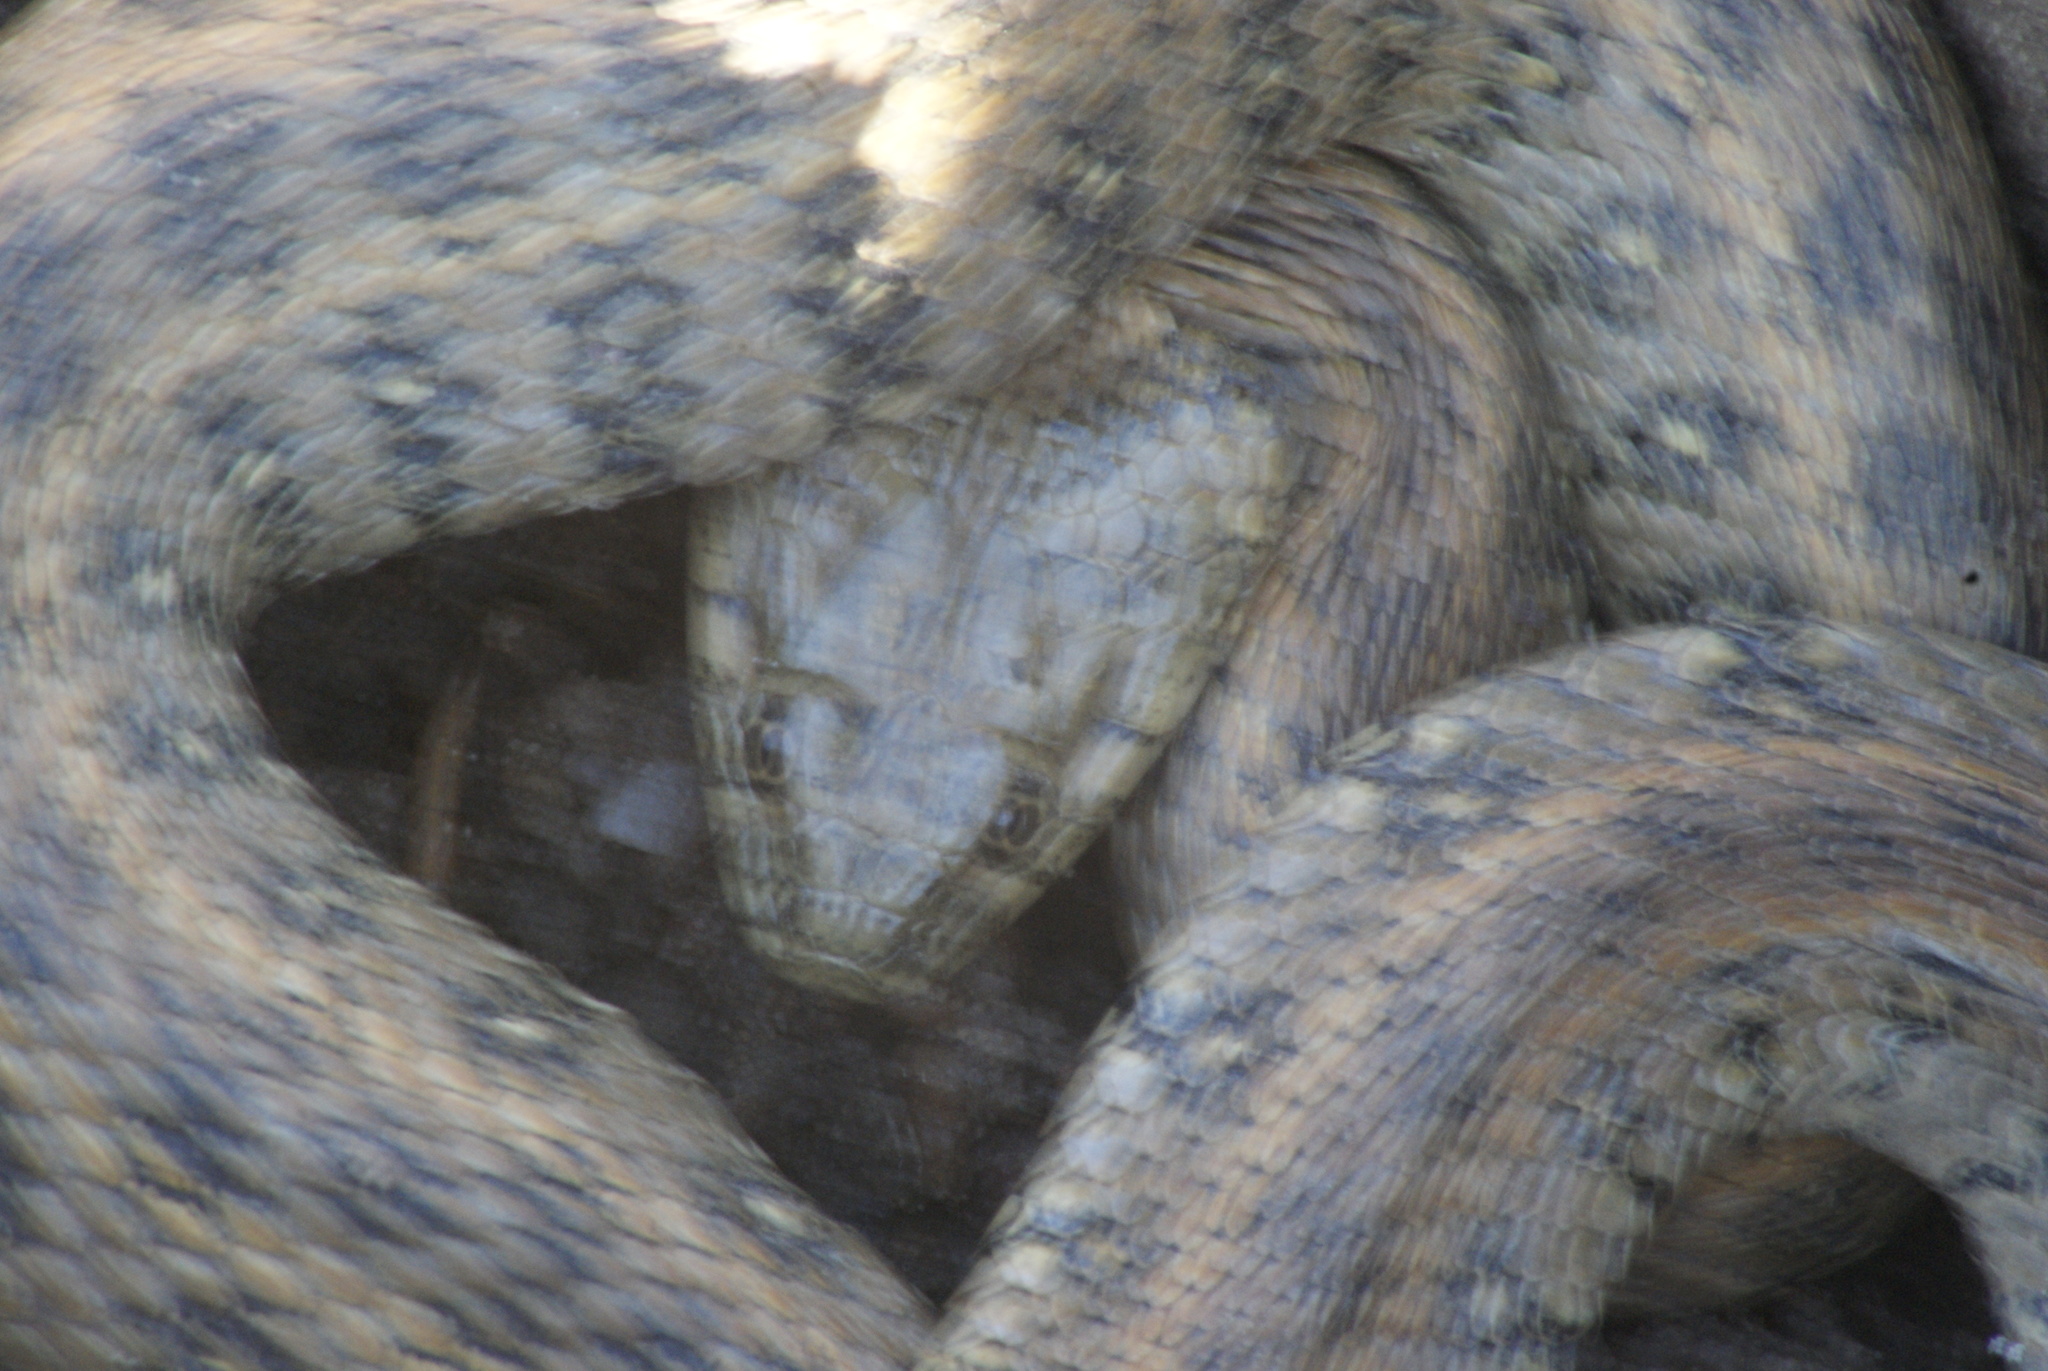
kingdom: Animalia
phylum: Chordata
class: Squamata
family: Colubridae
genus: Natrix
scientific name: Natrix maura
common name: Viperine water snake
